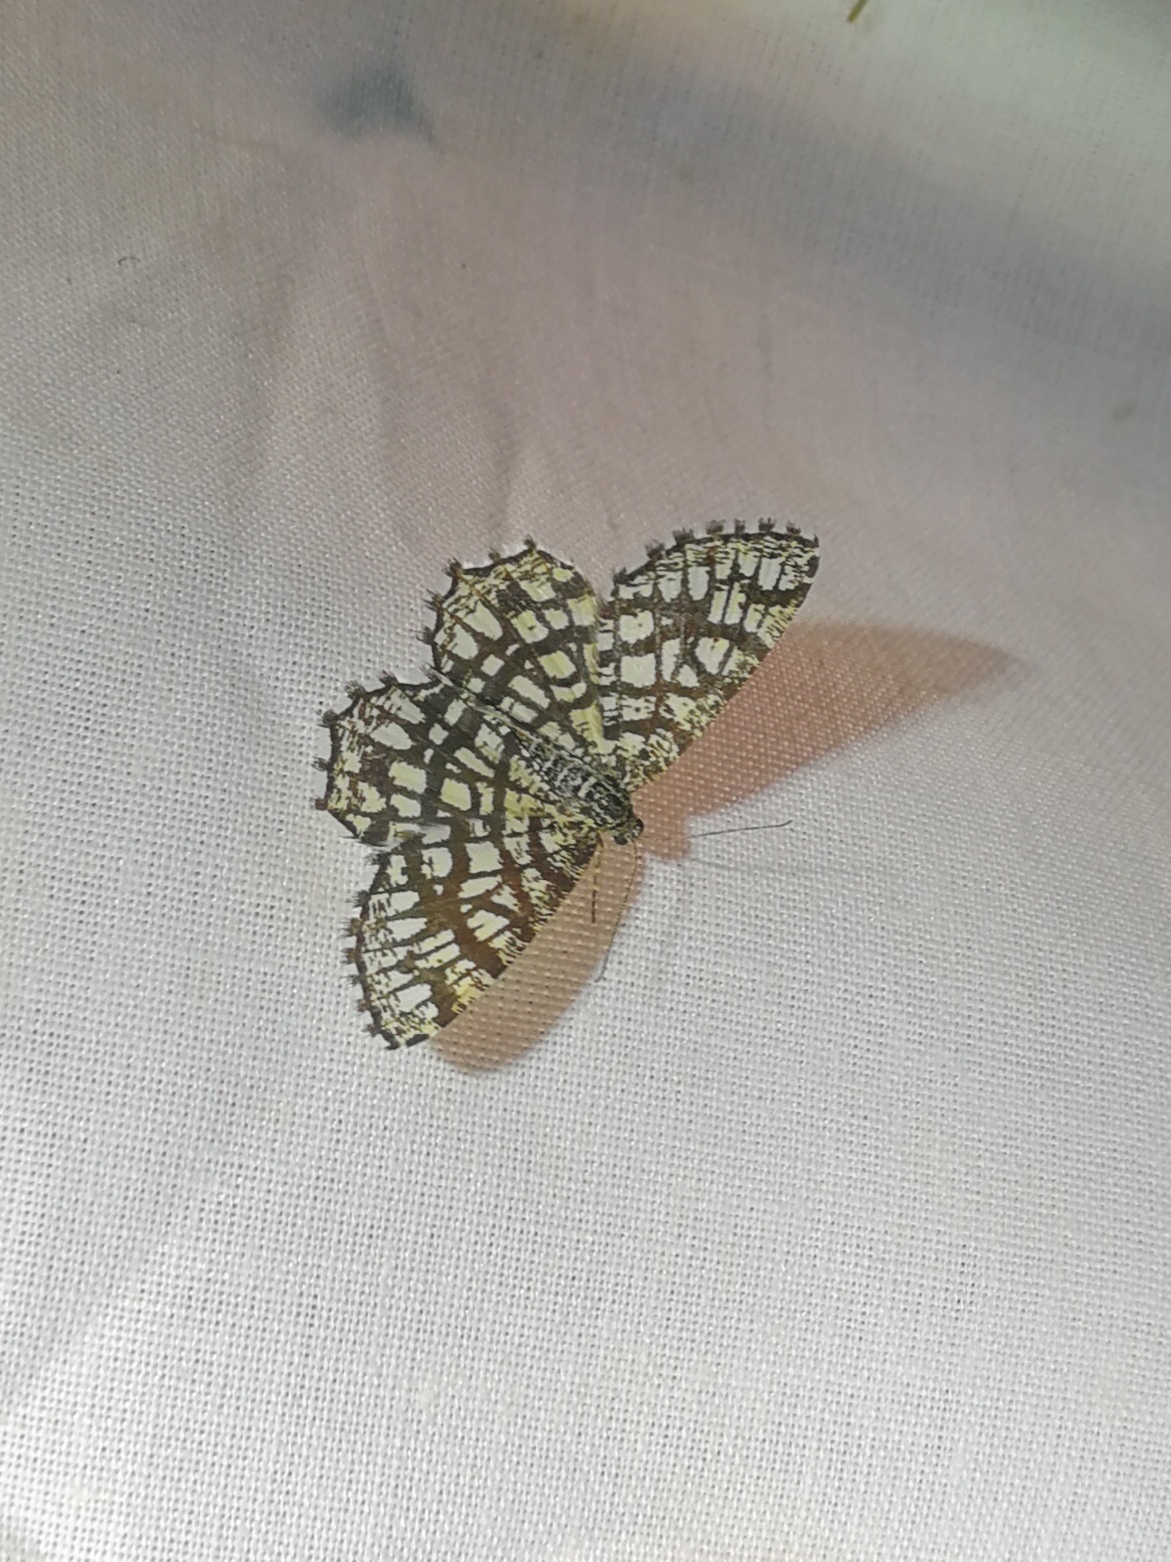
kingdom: Animalia
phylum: Arthropoda
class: Insecta
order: Lepidoptera
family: Geometridae
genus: Chiasmia
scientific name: Chiasmia clathrata
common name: Latticed heath
